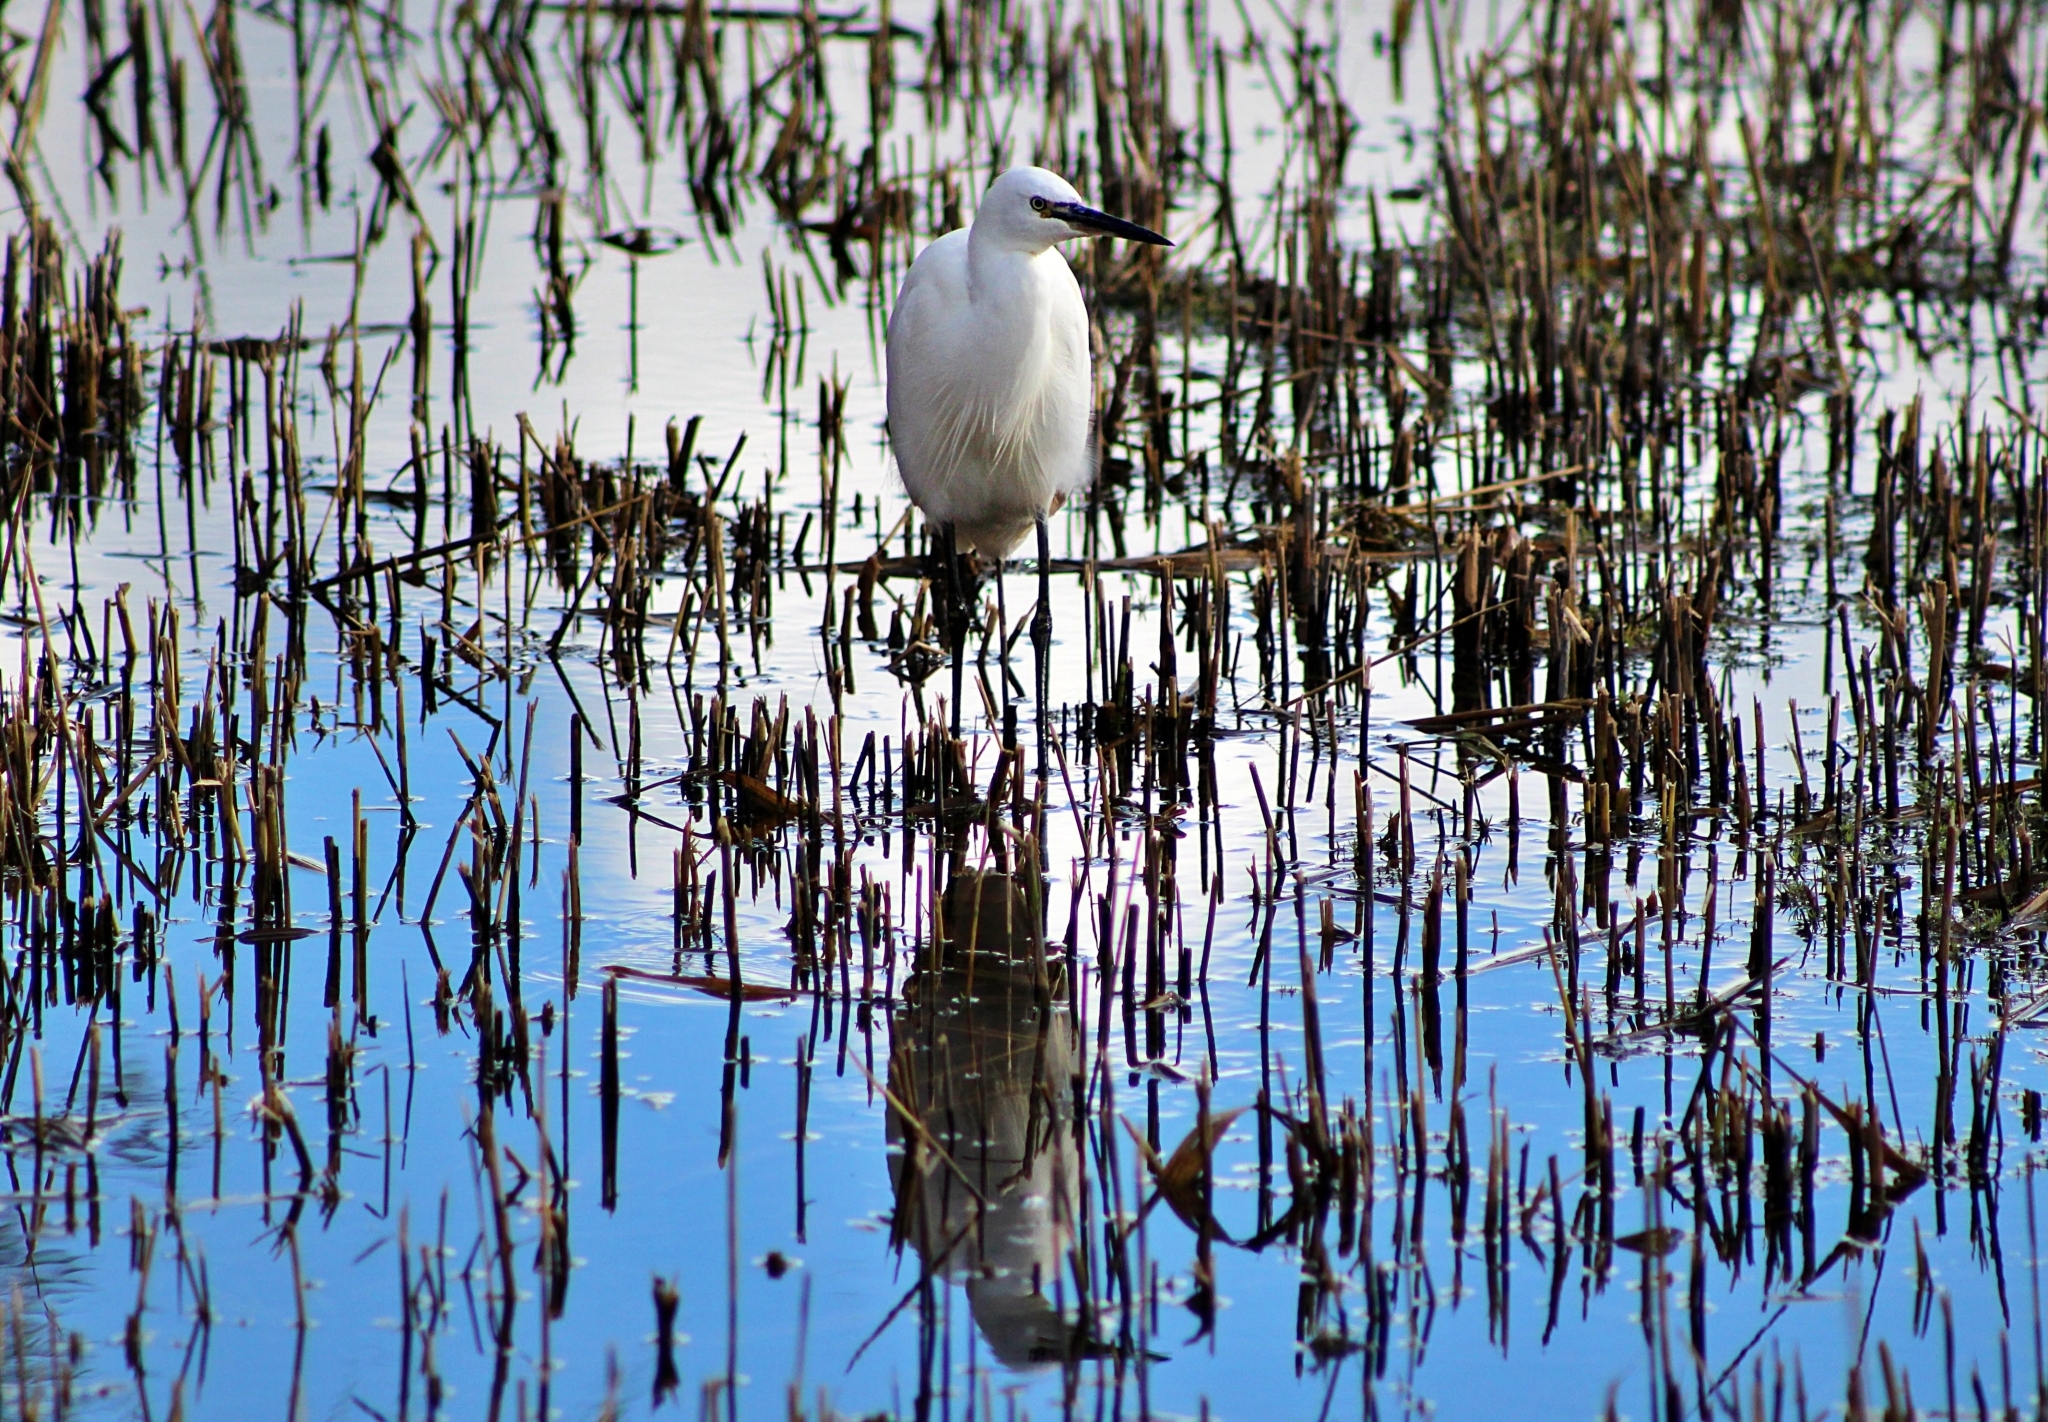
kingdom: Animalia
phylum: Chordata
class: Aves
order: Pelecaniformes
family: Ardeidae
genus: Egretta
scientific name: Egretta garzetta
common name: Little egret
